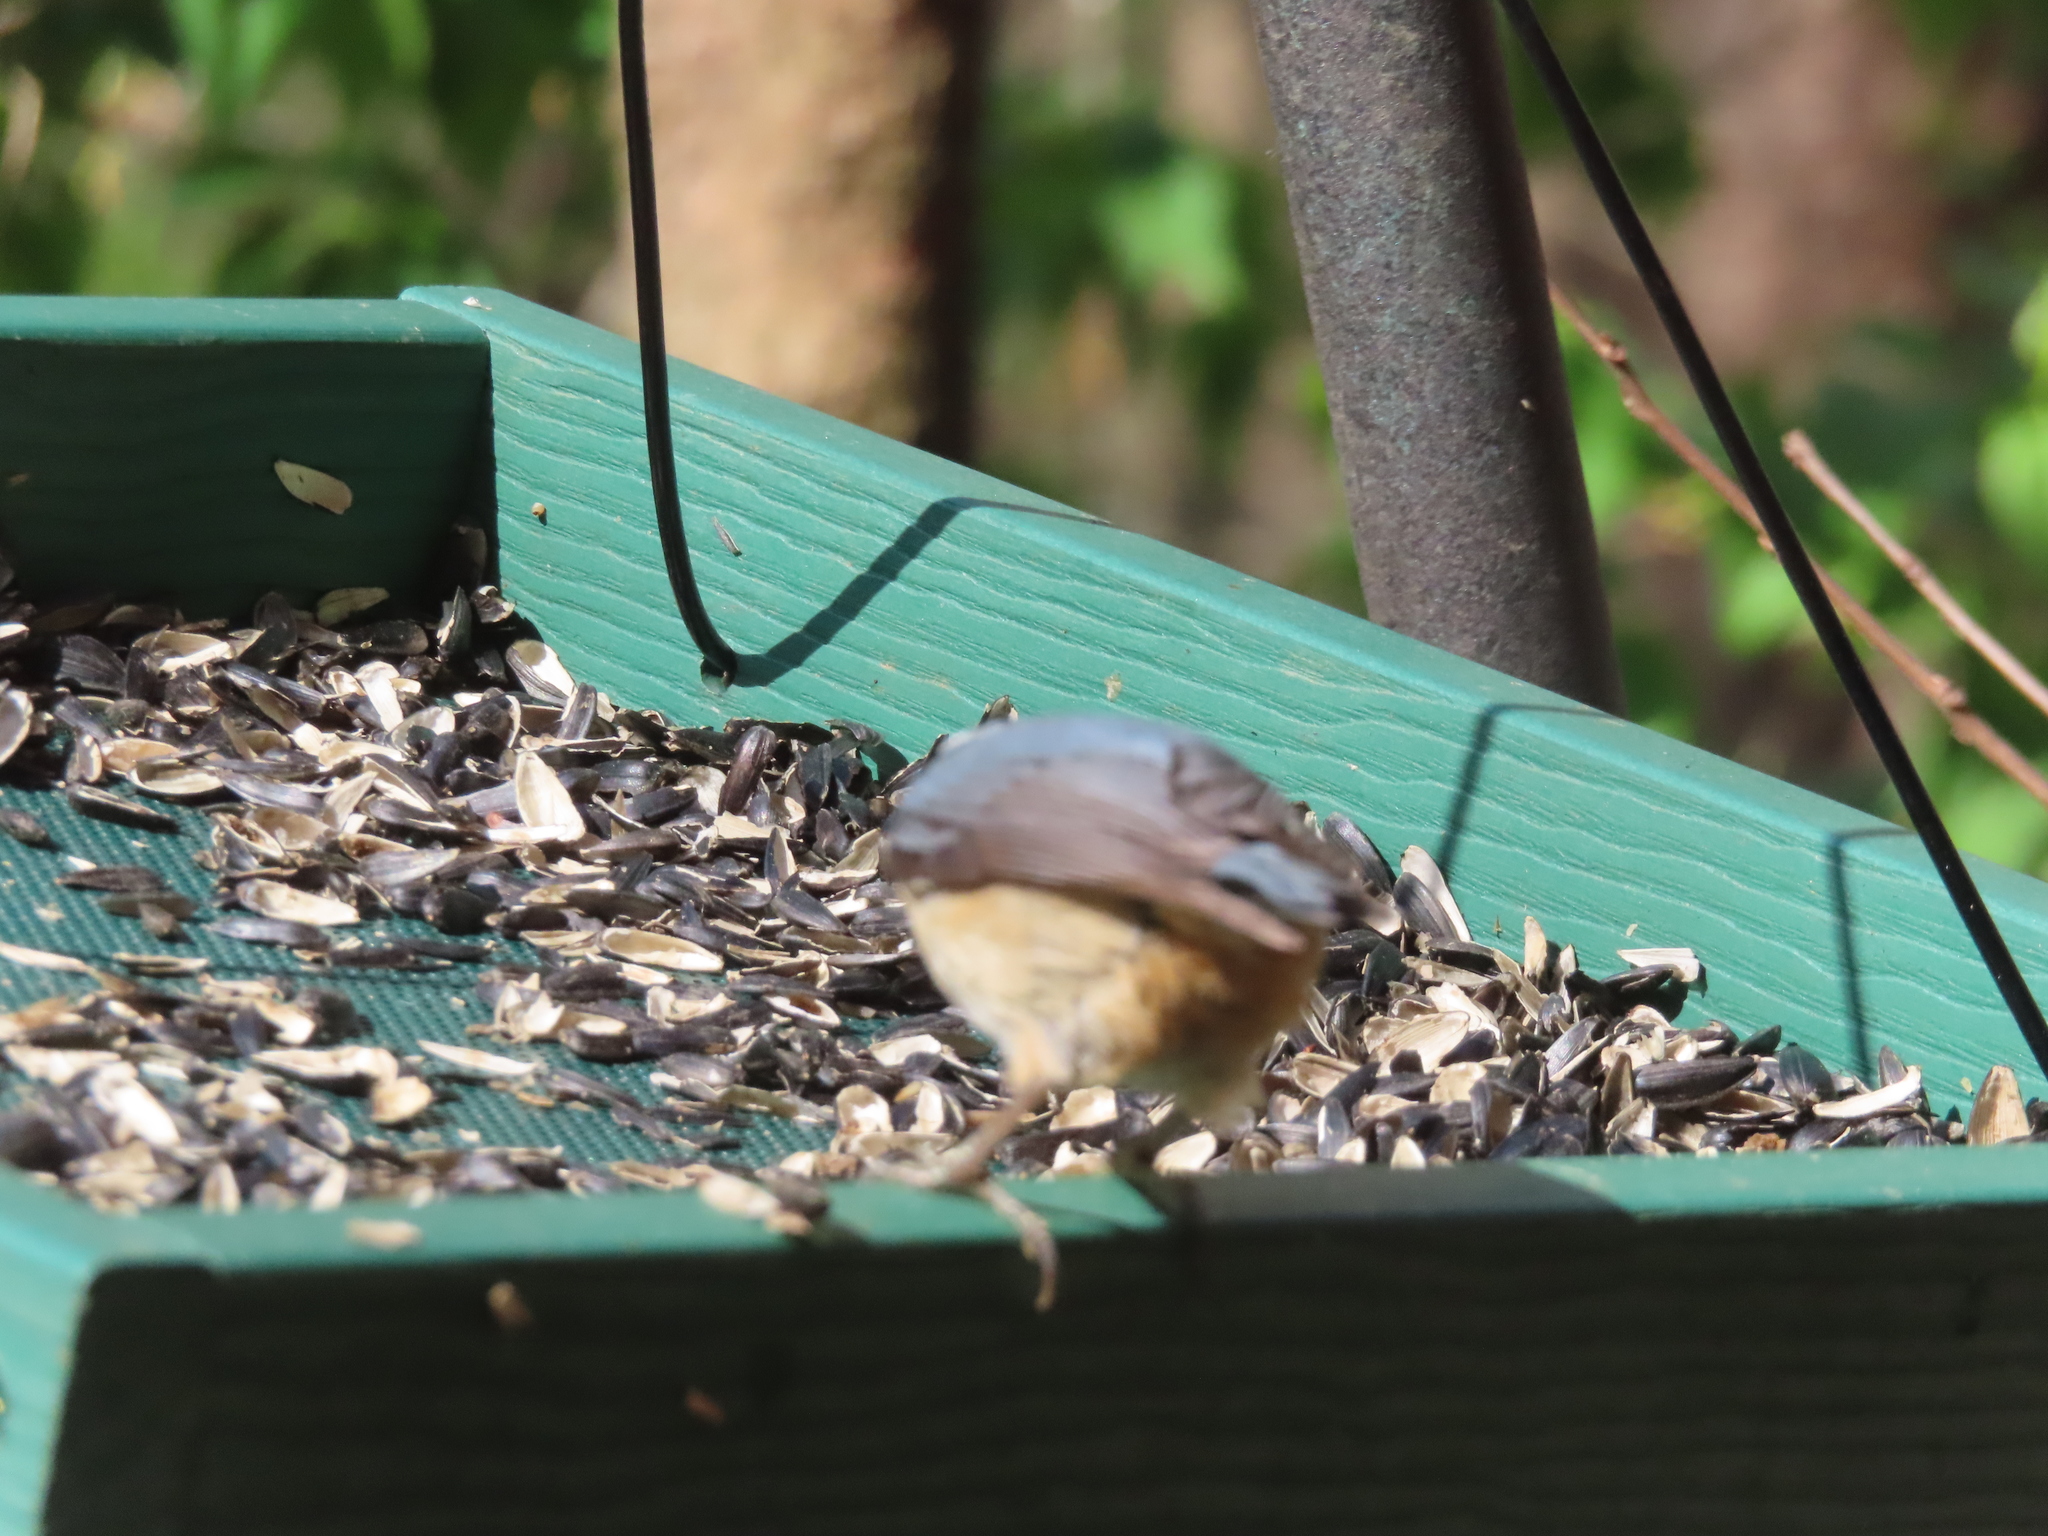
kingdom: Animalia
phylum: Chordata
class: Aves
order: Passeriformes
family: Sittidae
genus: Sitta
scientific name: Sitta canadensis
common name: Red-breasted nuthatch
